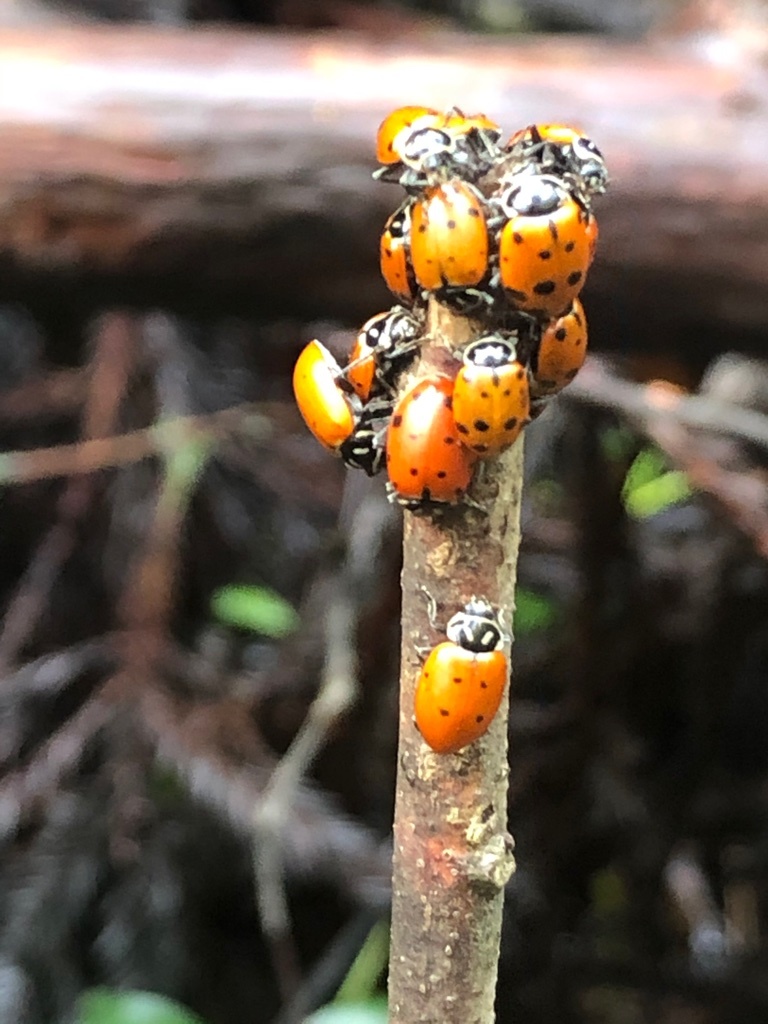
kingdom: Animalia
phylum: Arthropoda
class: Insecta
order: Coleoptera
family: Coccinellidae
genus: Hippodamia
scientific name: Hippodamia convergens
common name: Convergent lady beetle
